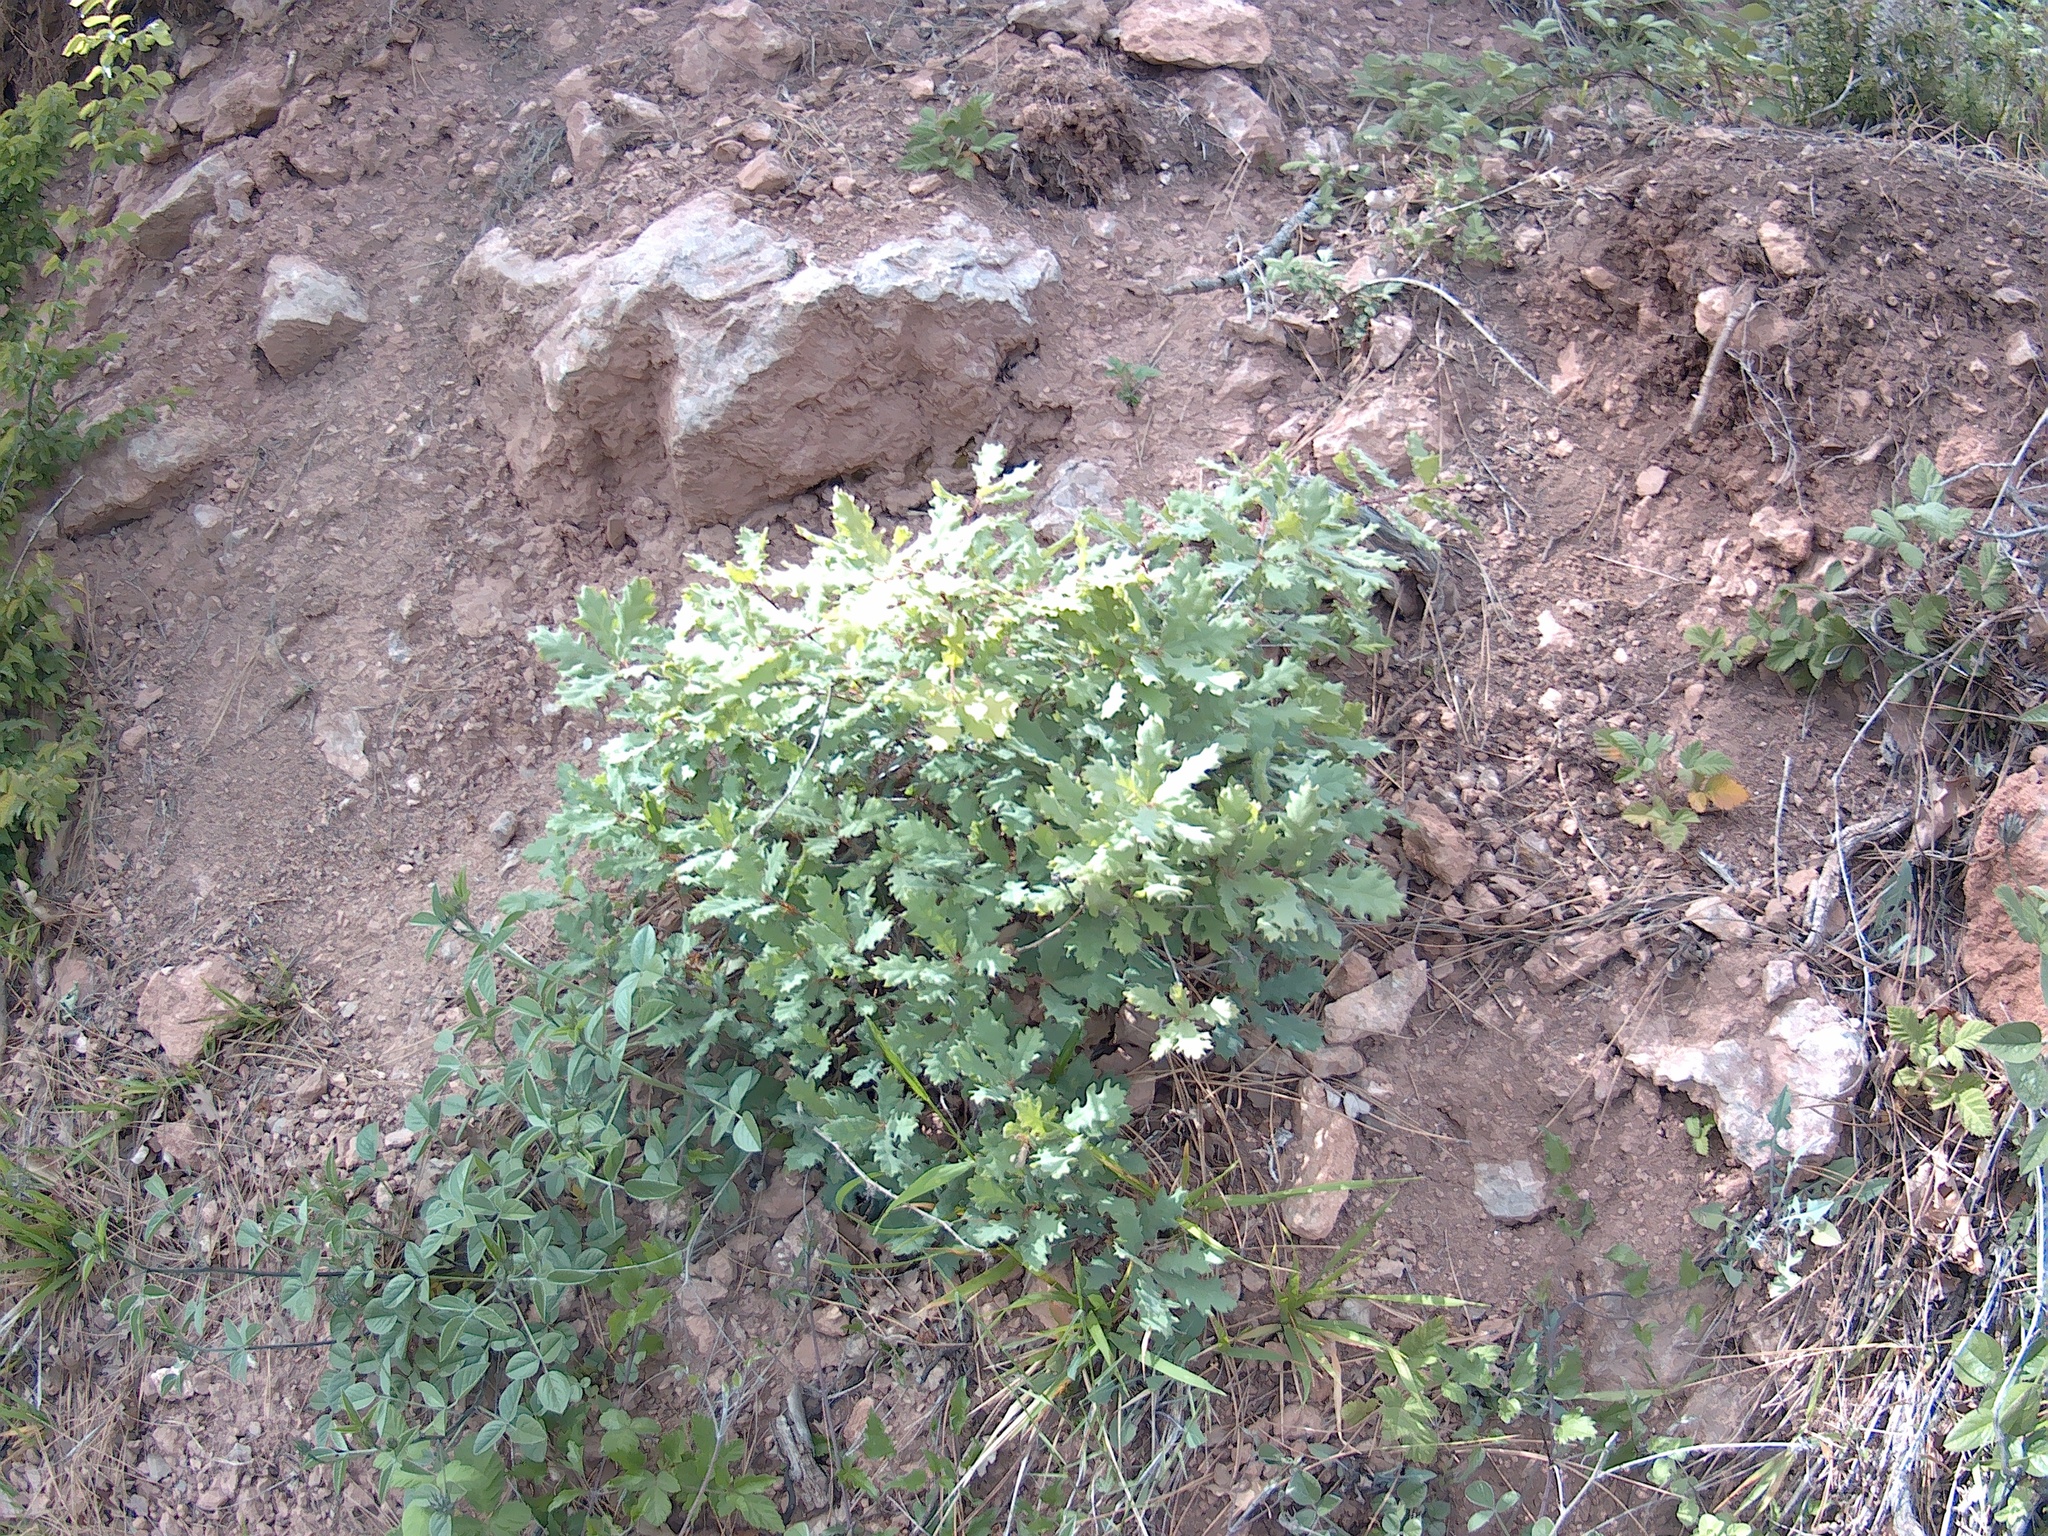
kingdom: Plantae
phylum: Tracheophyta
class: Magnoliopsida
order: Fagales
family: Fagaceae
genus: Quercus
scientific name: Quercus pubescens
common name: Downy oak
